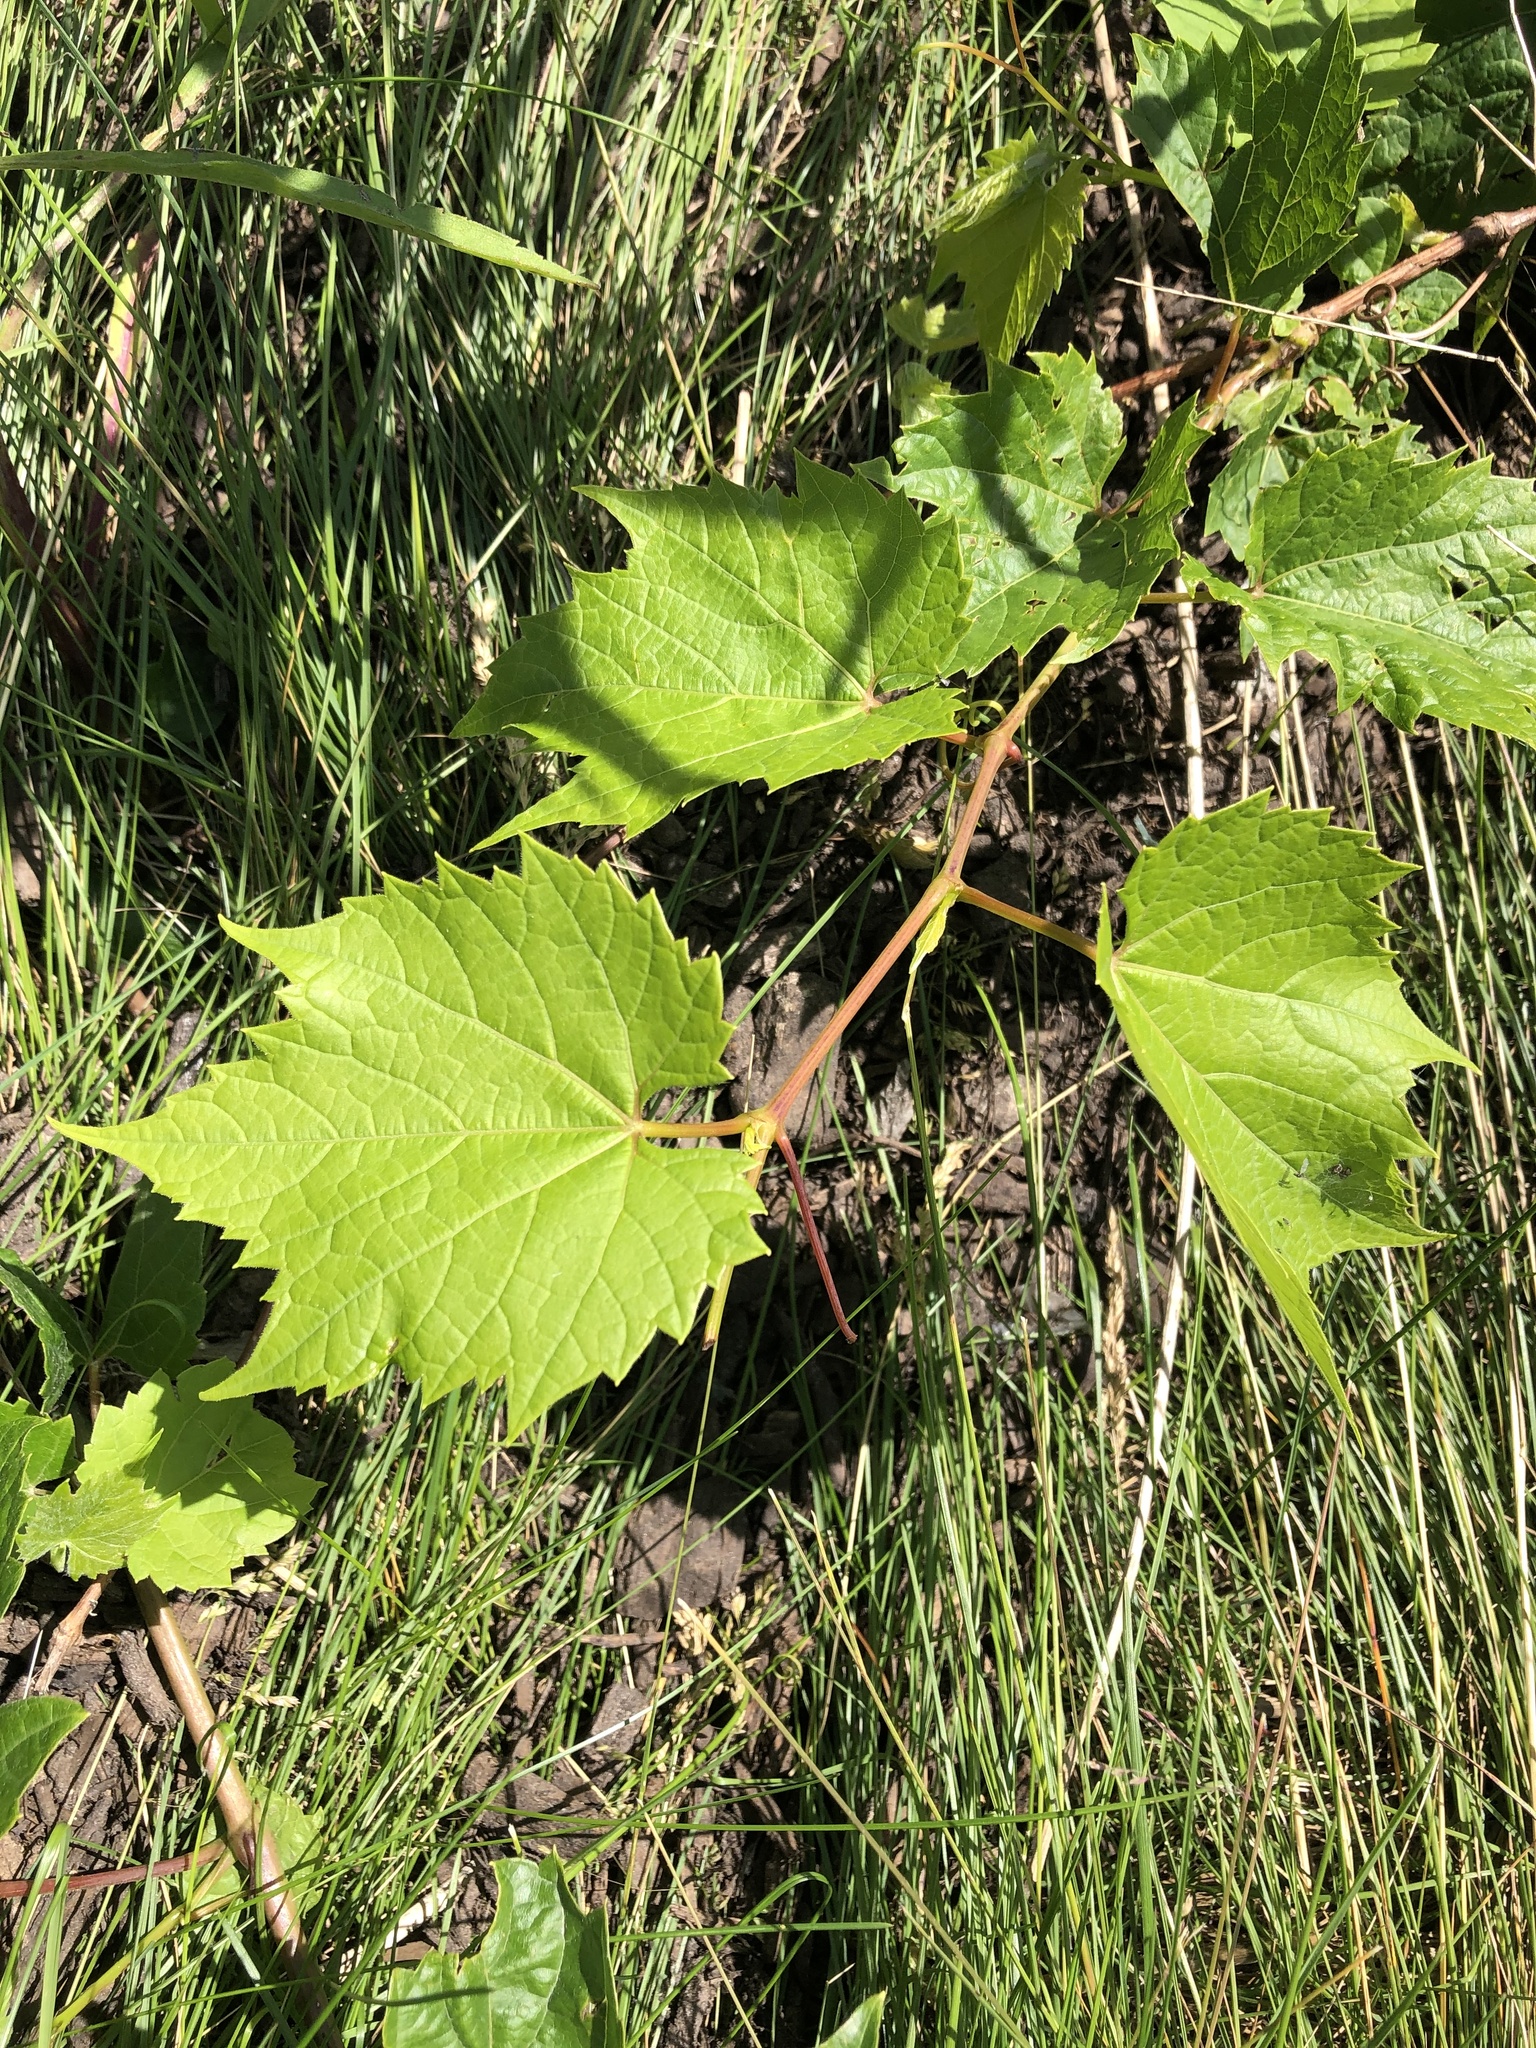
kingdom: Plantae
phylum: Tracheophyta
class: Magnoliopsida
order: Vitales
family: Vitaceae
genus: Vitis
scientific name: Vitis riparia
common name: Frost grape
